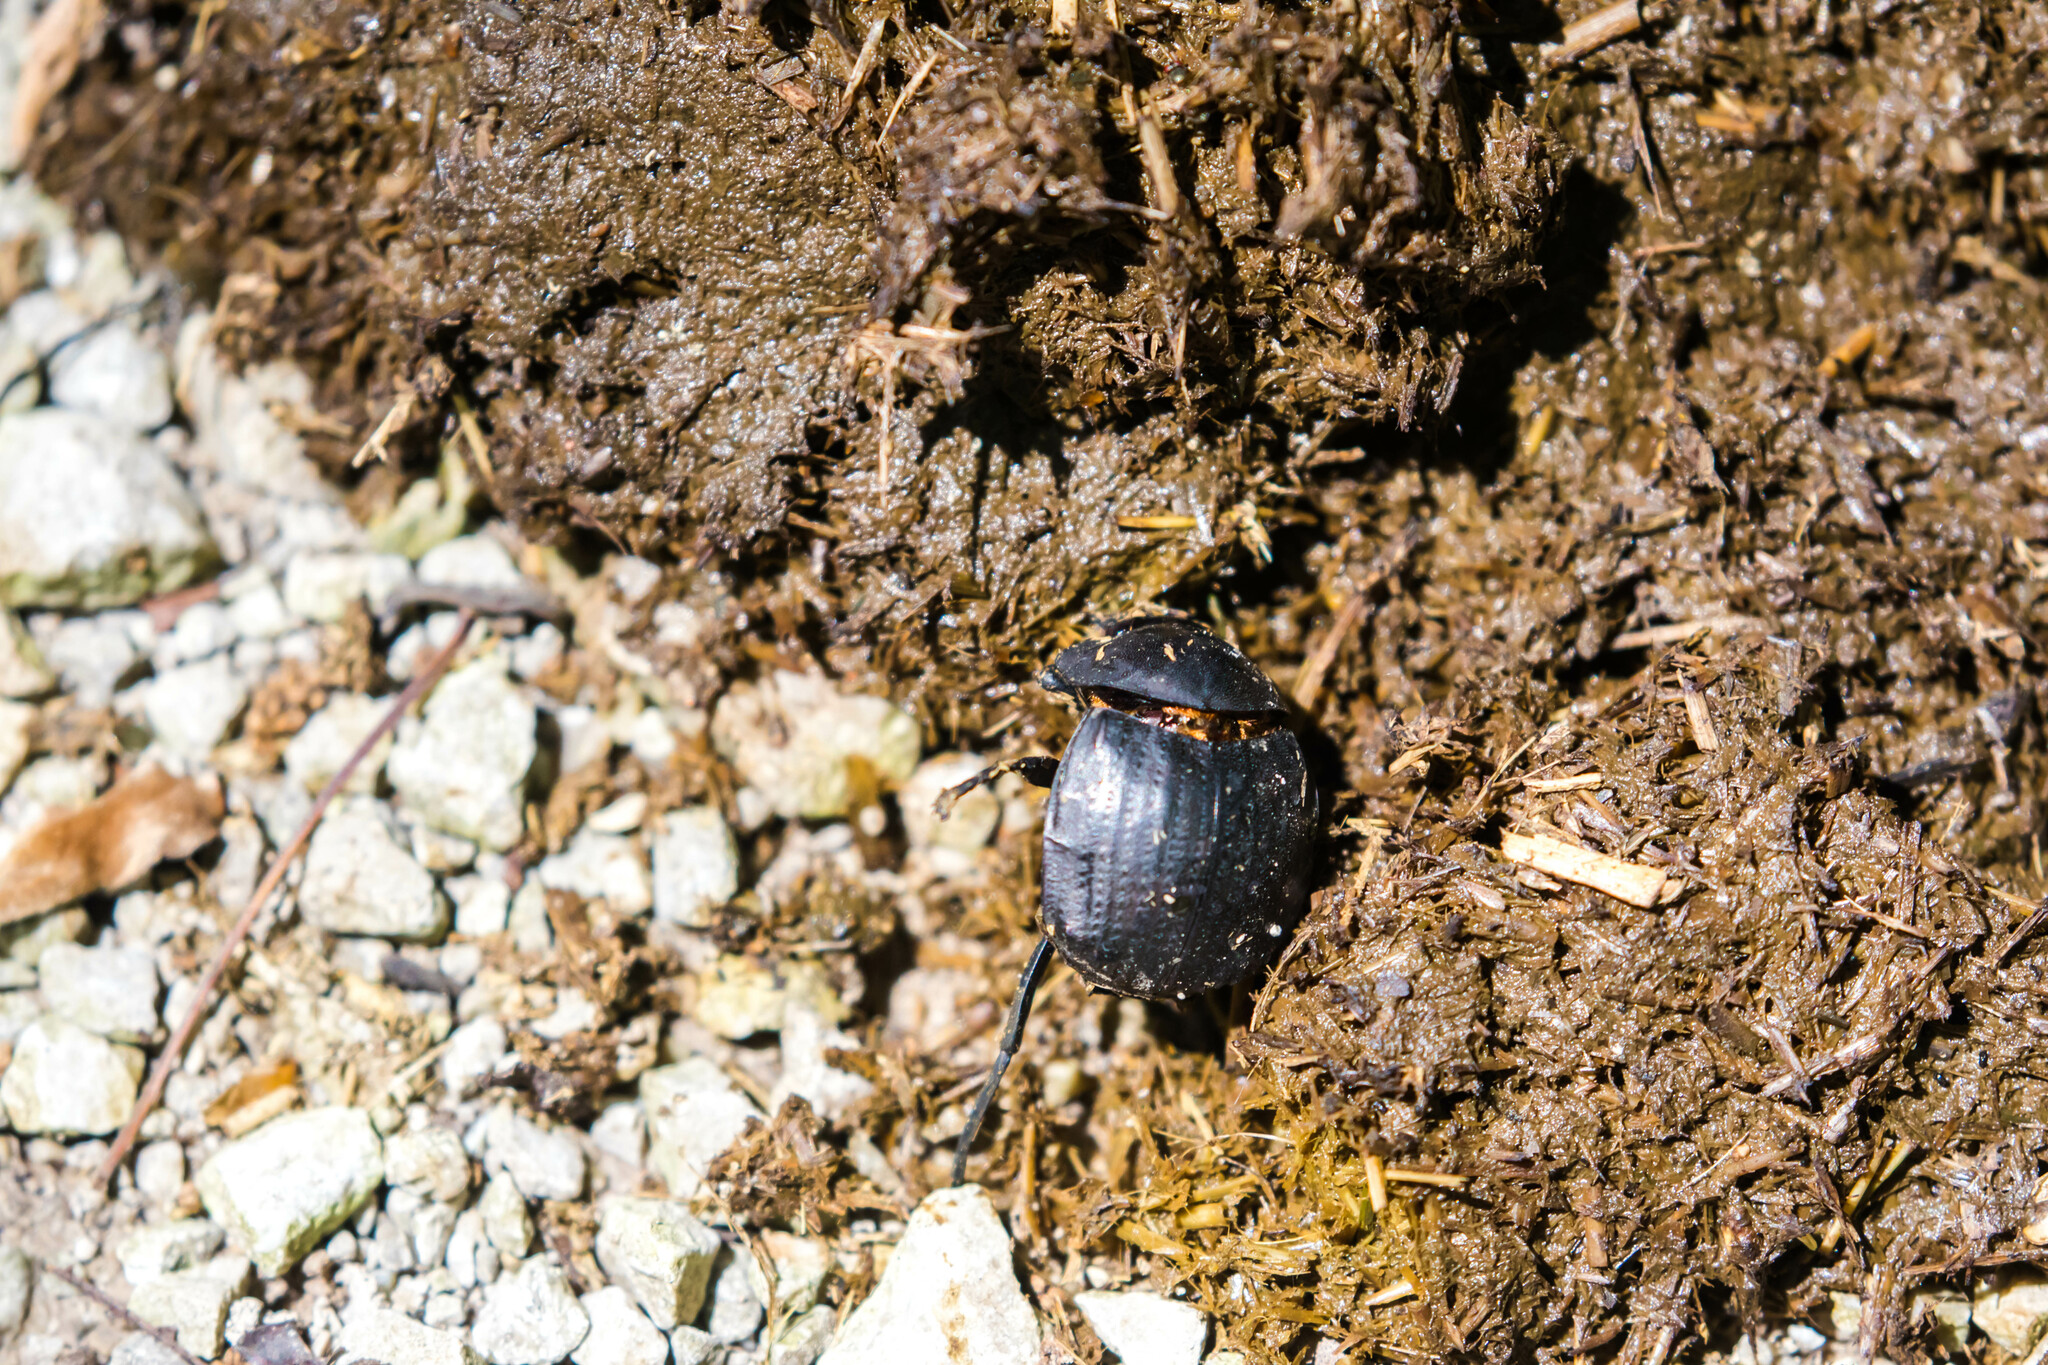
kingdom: Animalia
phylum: Arthropoda
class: Insecta
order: Coleoptera
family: Scarabaeidae
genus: Deltochilum
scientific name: Deltochilum gibbosum
